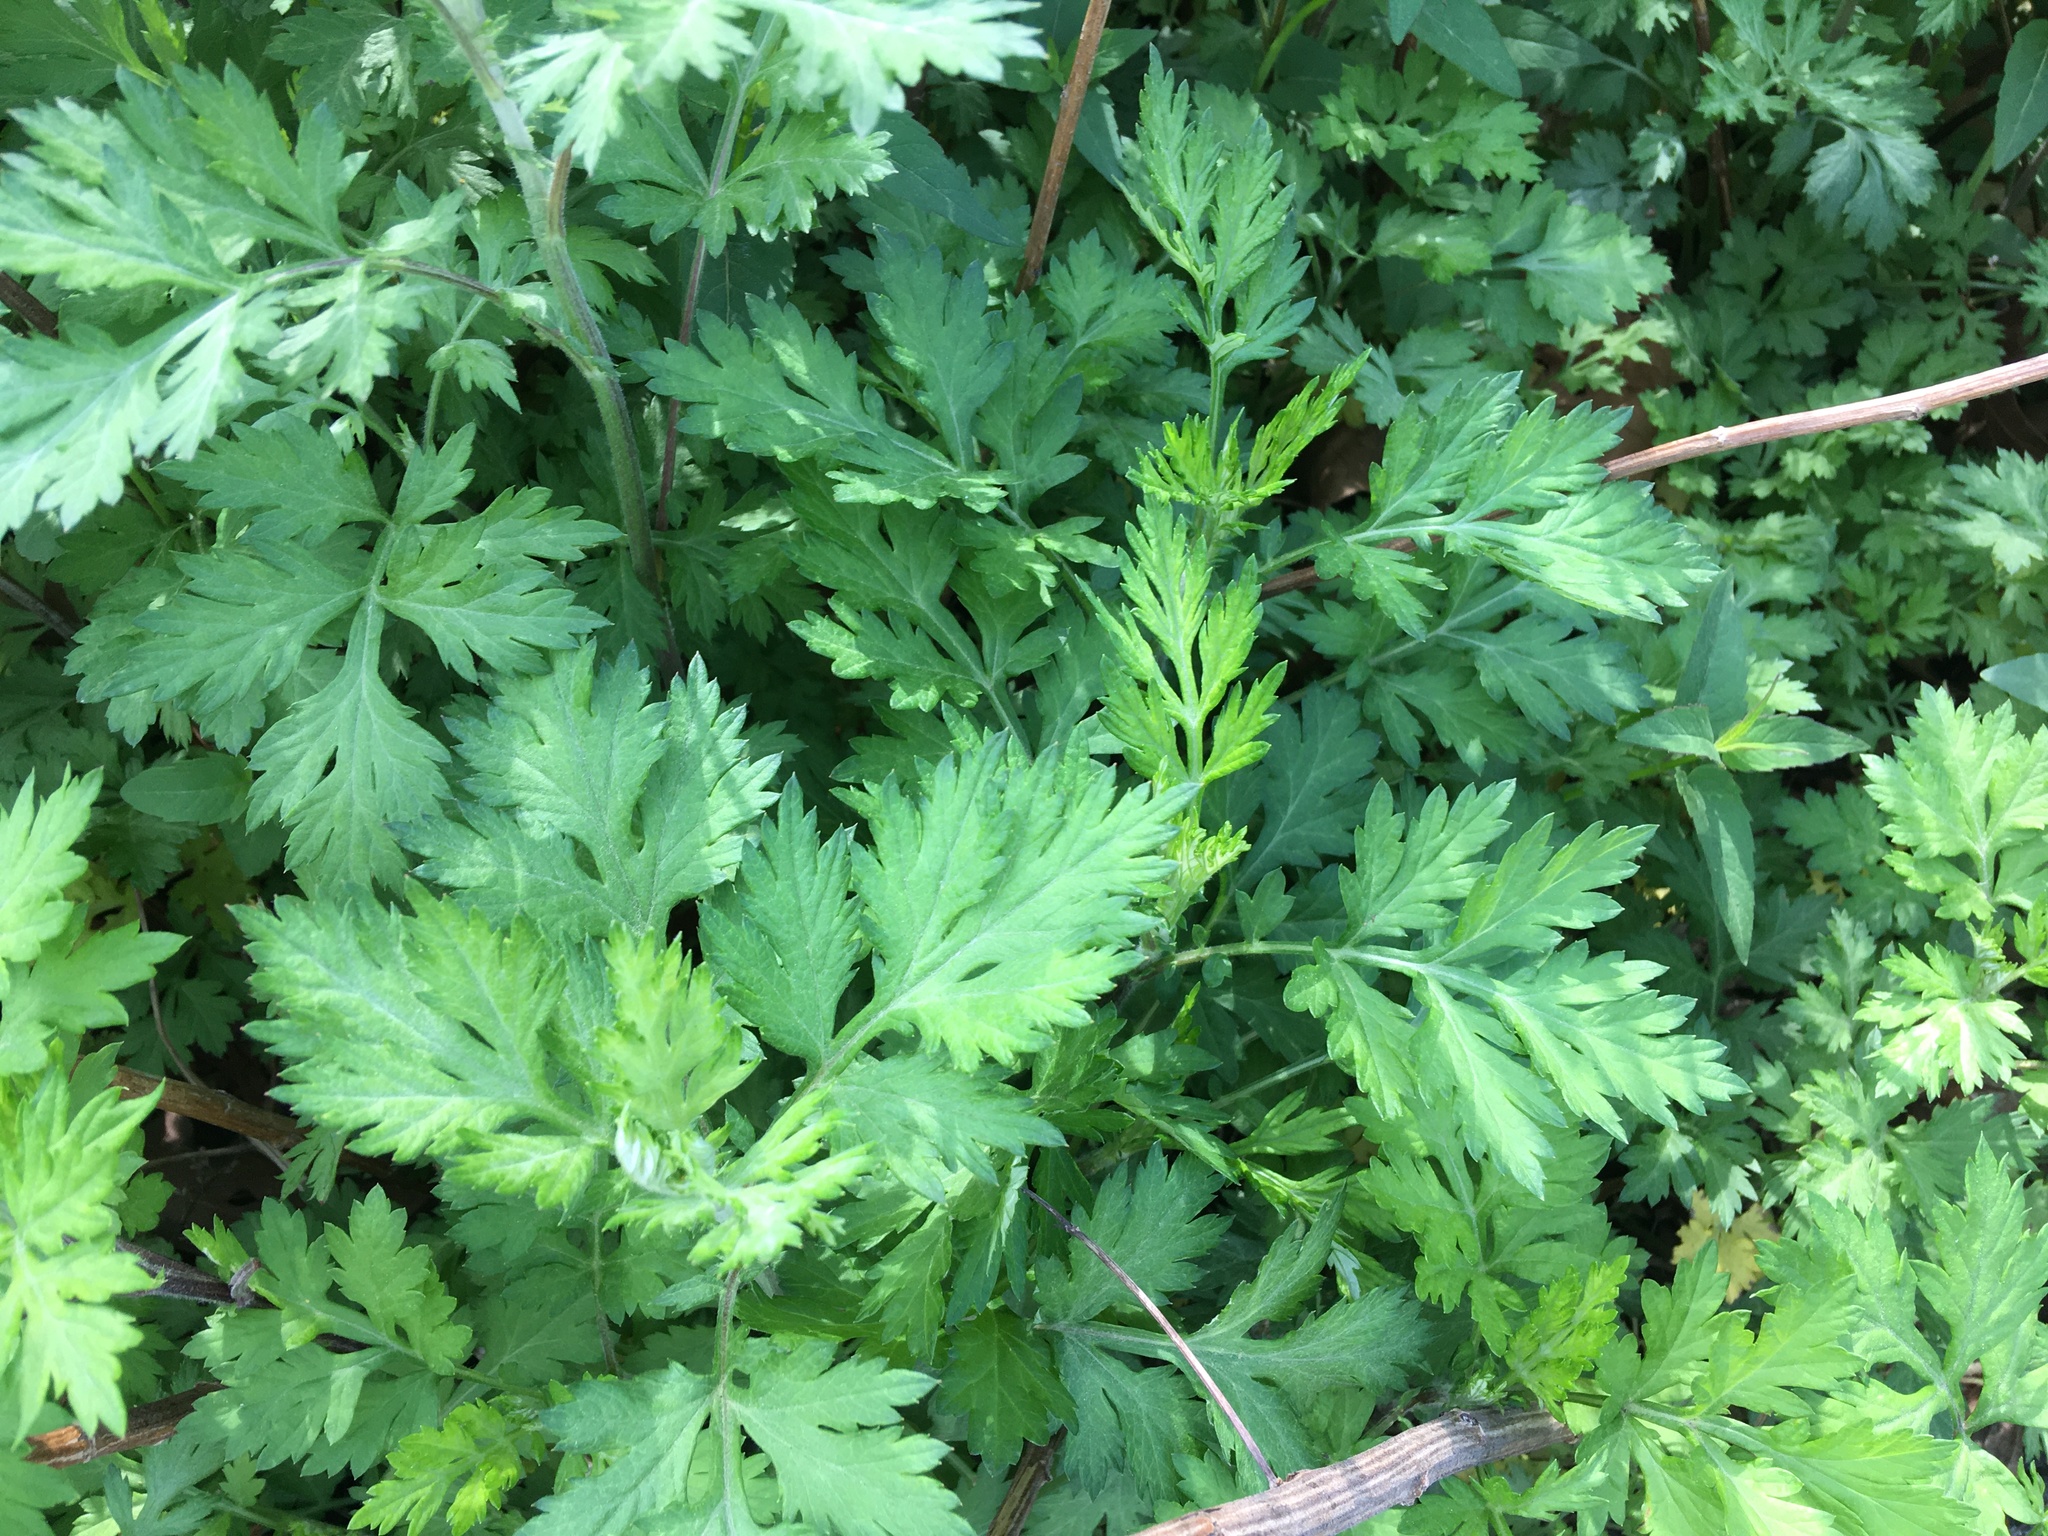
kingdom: Plantae
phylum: Tracheophyta
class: Magnoliopsida
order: Asterales
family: Asteraceae
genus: Artemisia
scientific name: Artemisia vulgaris
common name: Mugwort
